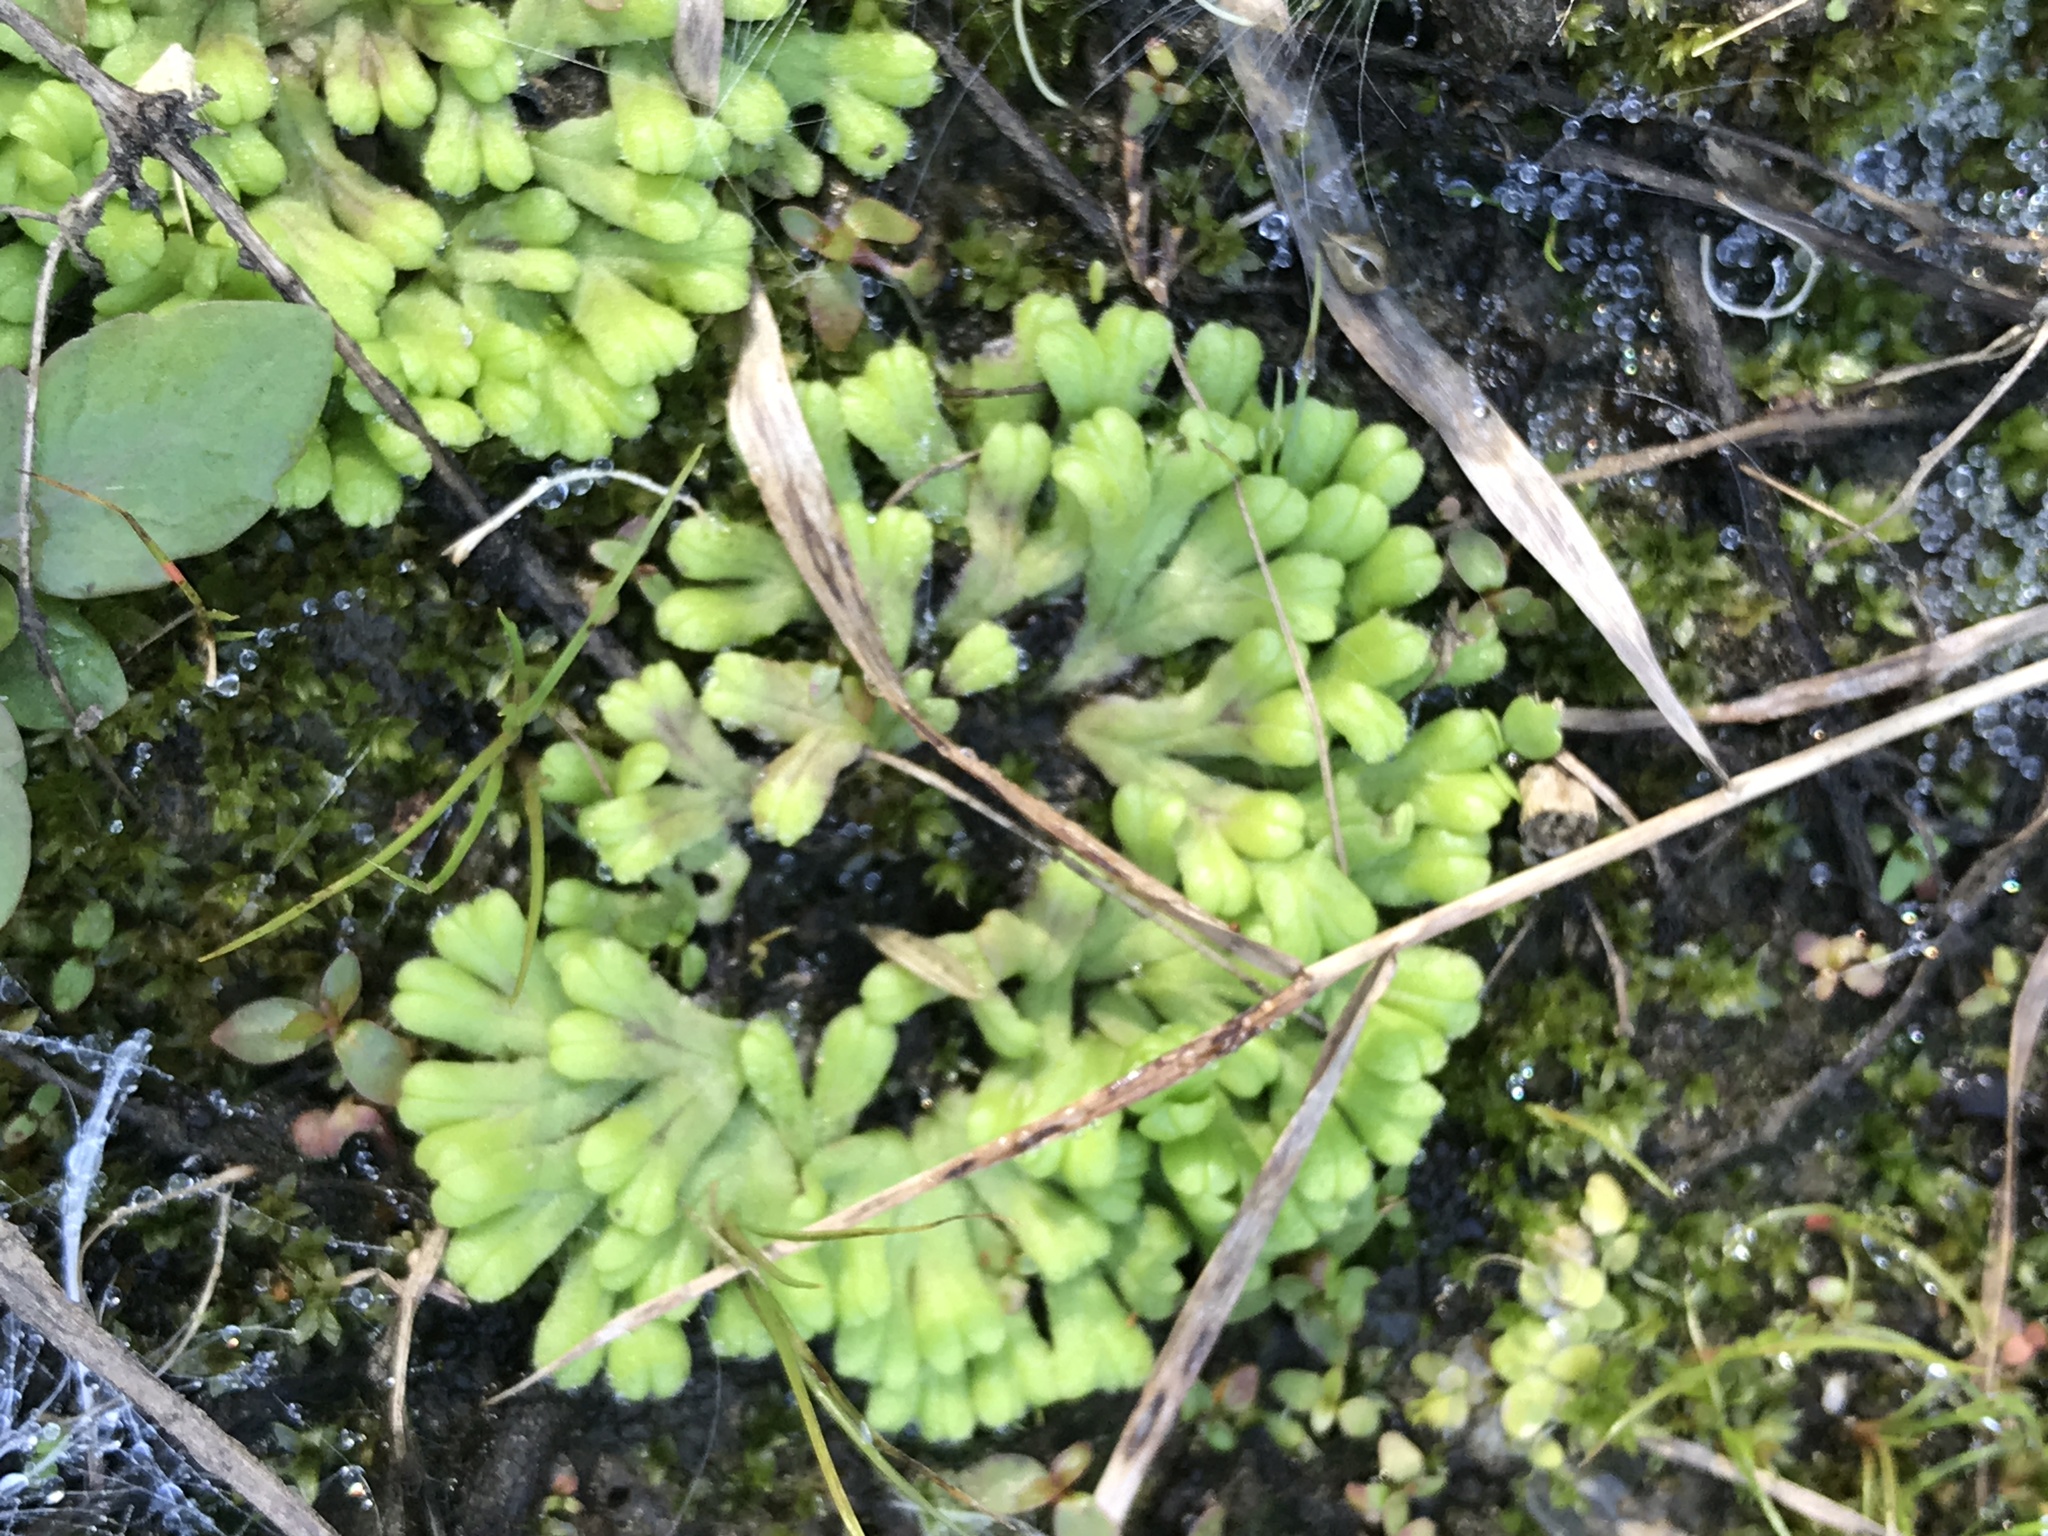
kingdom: Plantae
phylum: Marchantiophyta
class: Marchantiopsida
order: Marchantiales
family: Ricciaceae
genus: Ricciocarpos
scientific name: Ricciocarpos natans
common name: Purple-fringed liverwort
